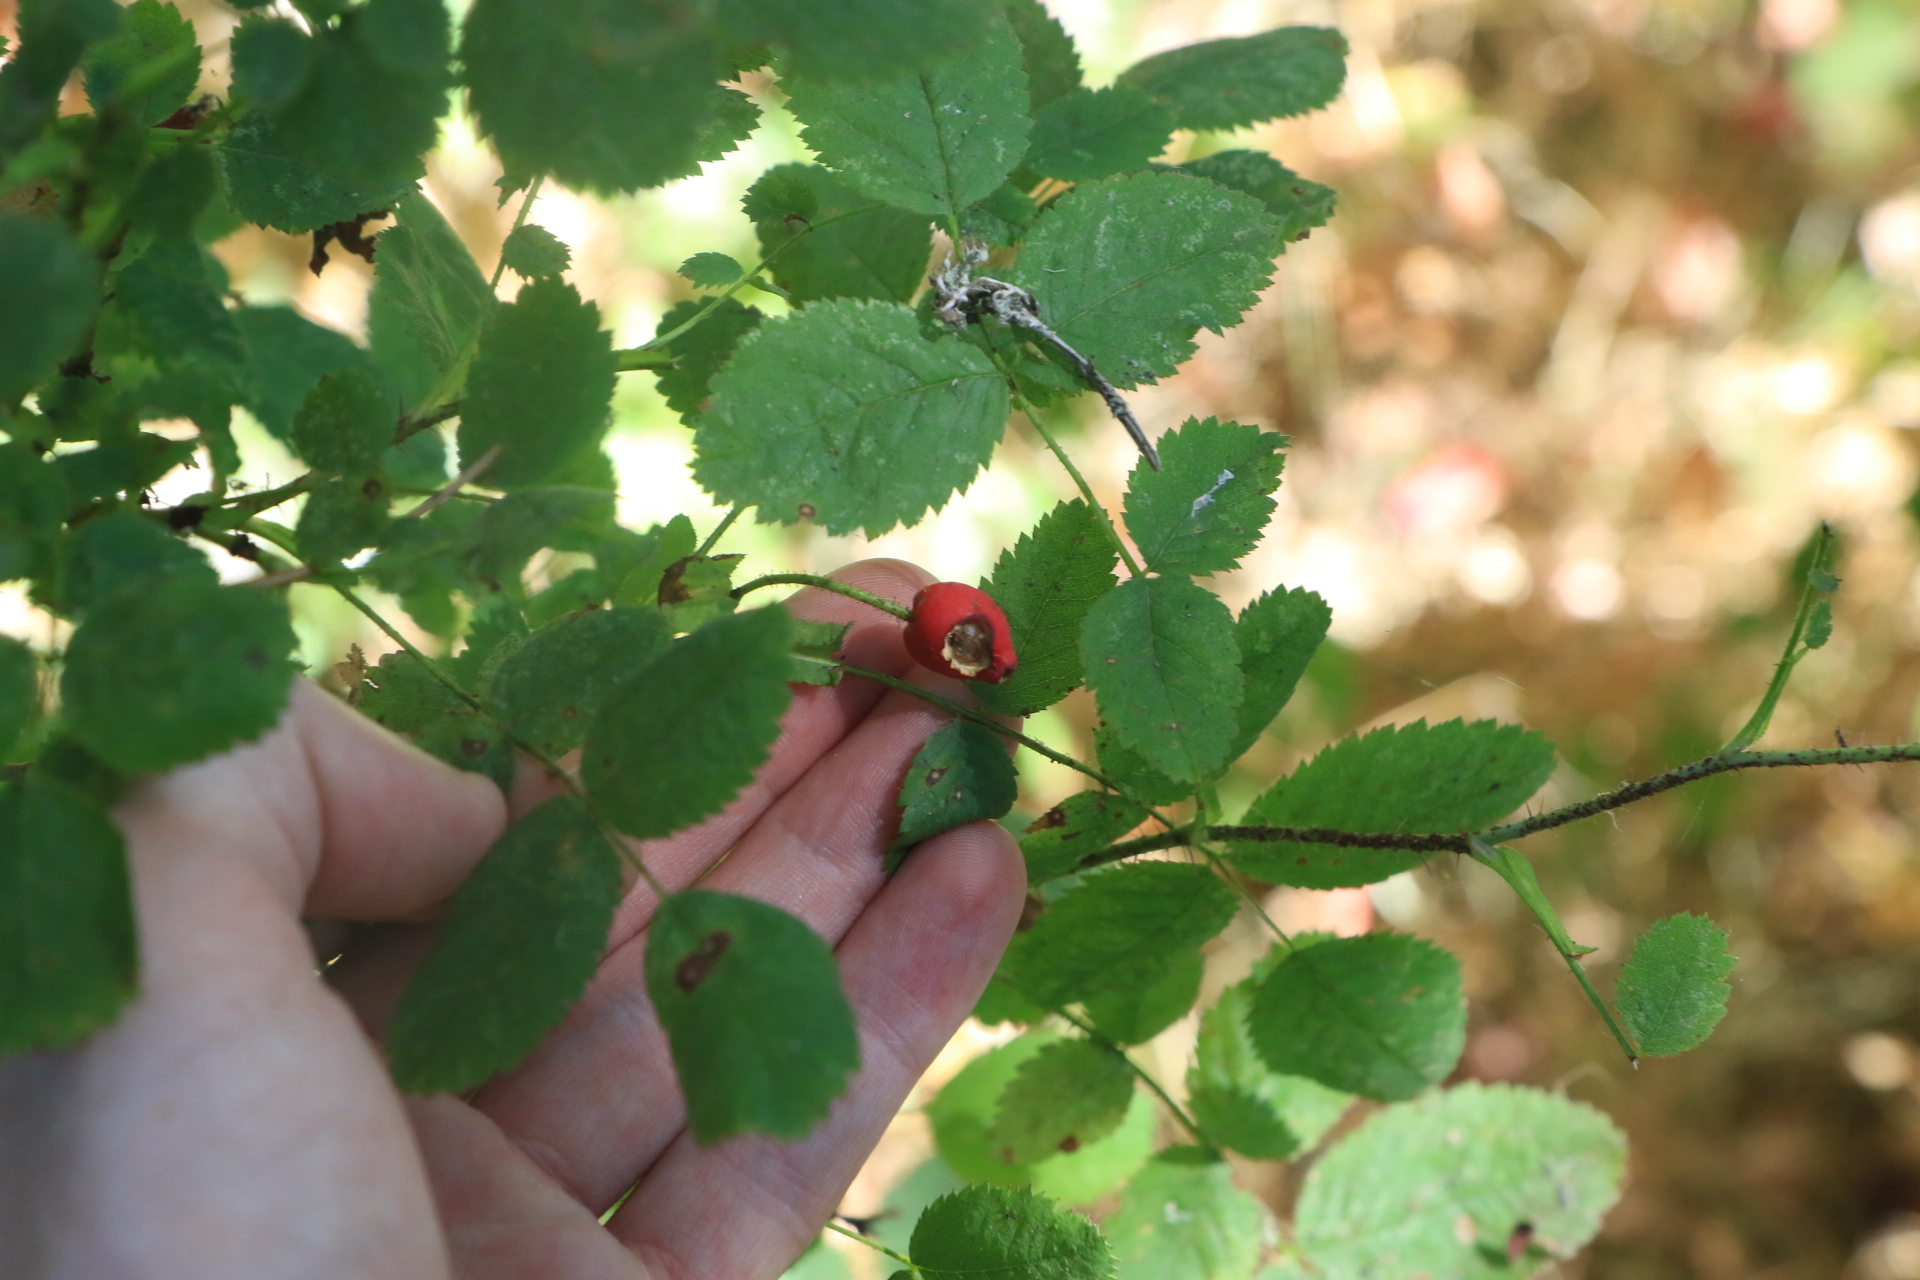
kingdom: Plantae
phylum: Tracheophyta
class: Magnoliopsida
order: Rosales
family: Rosaceae
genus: Rosa
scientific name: Rosa gymnocarpa
